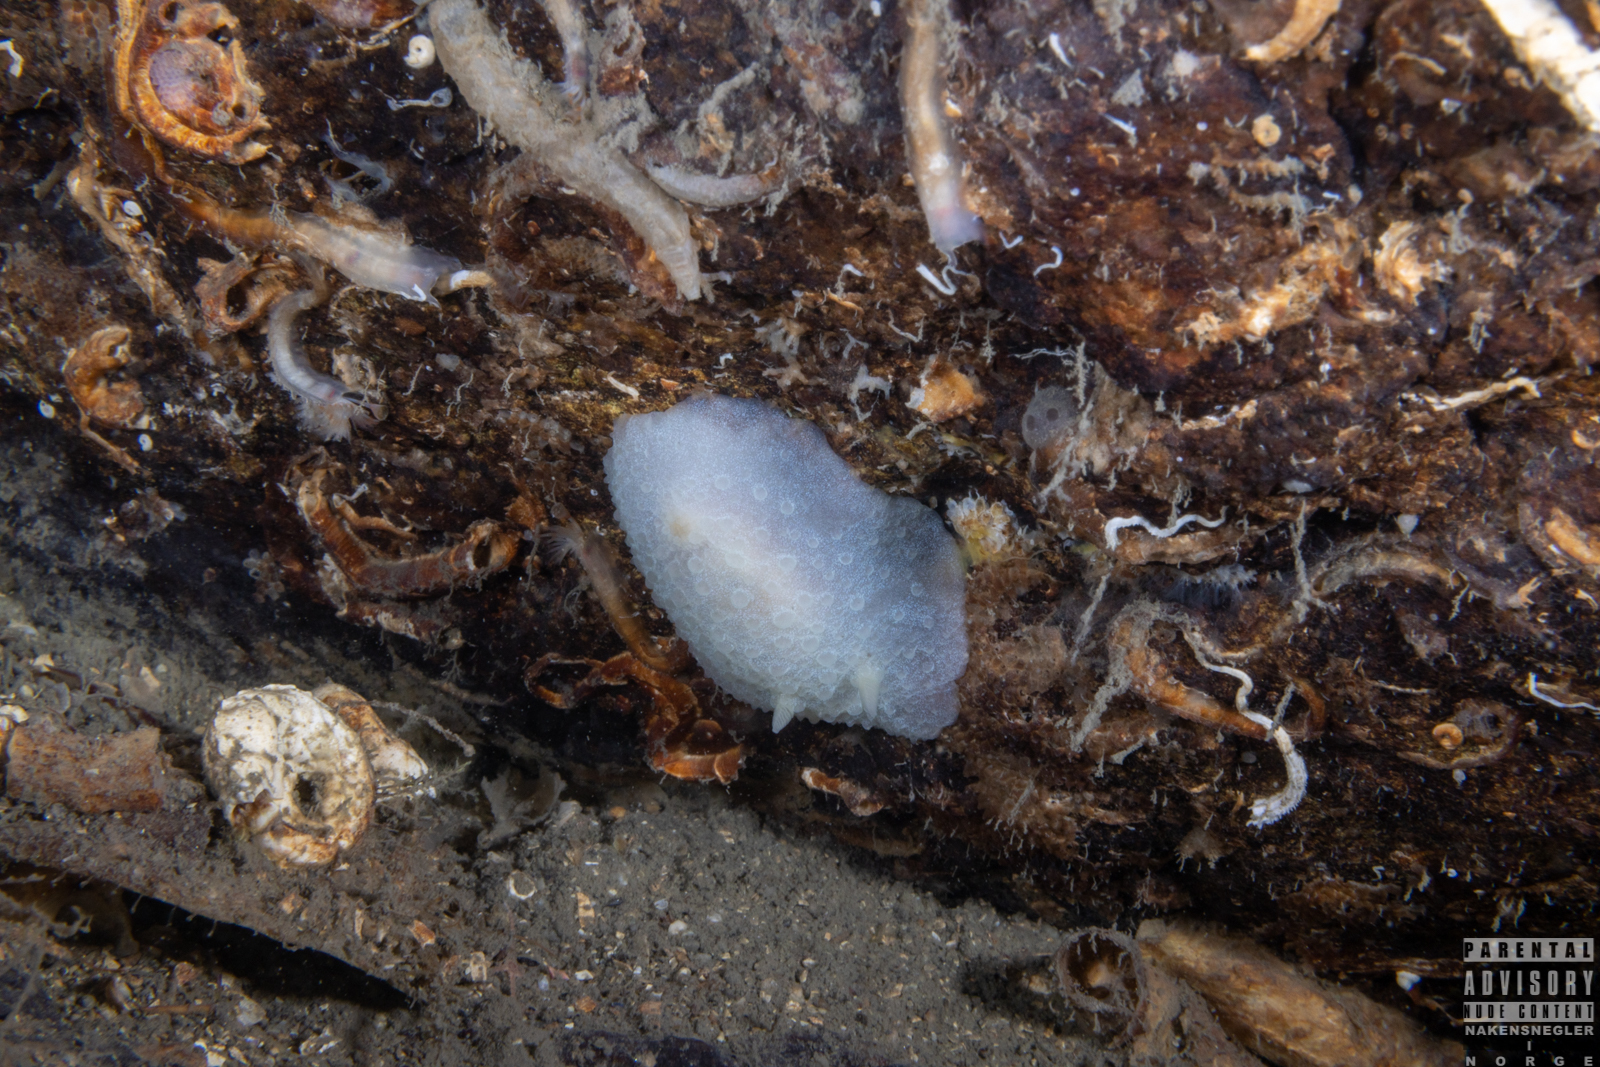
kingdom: Animalia
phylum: Mollusca
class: Gastropoda
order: Nudibranchia
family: Cadlinidae
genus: Aldisa
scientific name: Aldisa zetlandica
